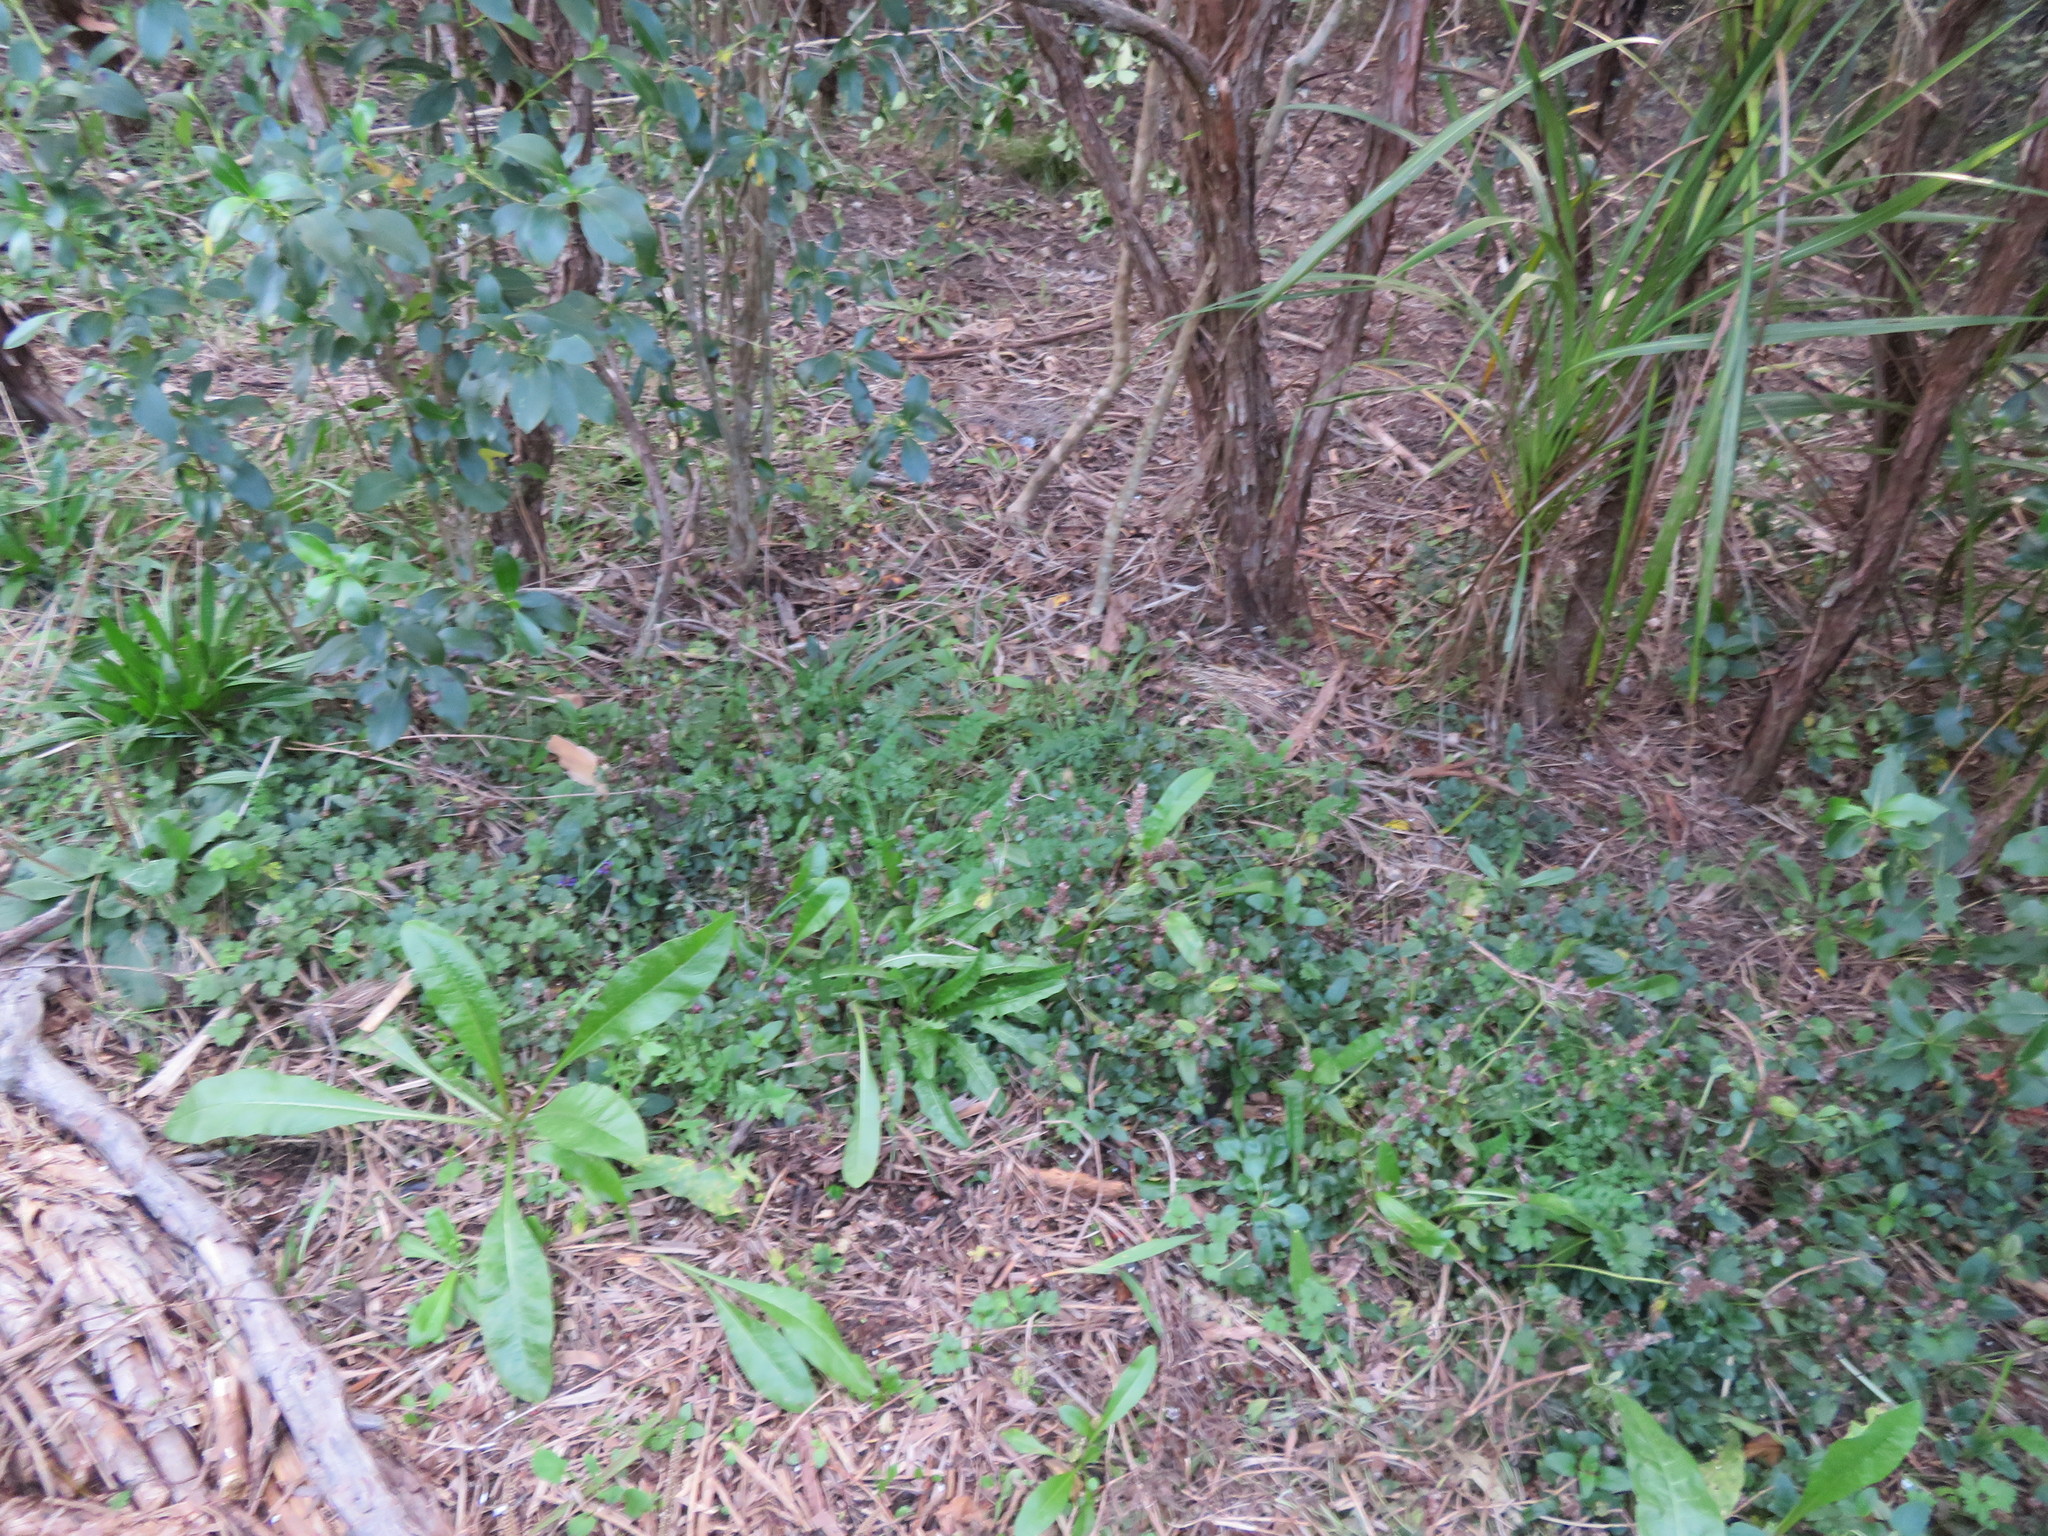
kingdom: Plantae
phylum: Tracheophyta
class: Magnoliopsida
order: Lamiales
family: Lamiaceae
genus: Prunella
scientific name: Prunella vulgaris
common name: Heal-all
